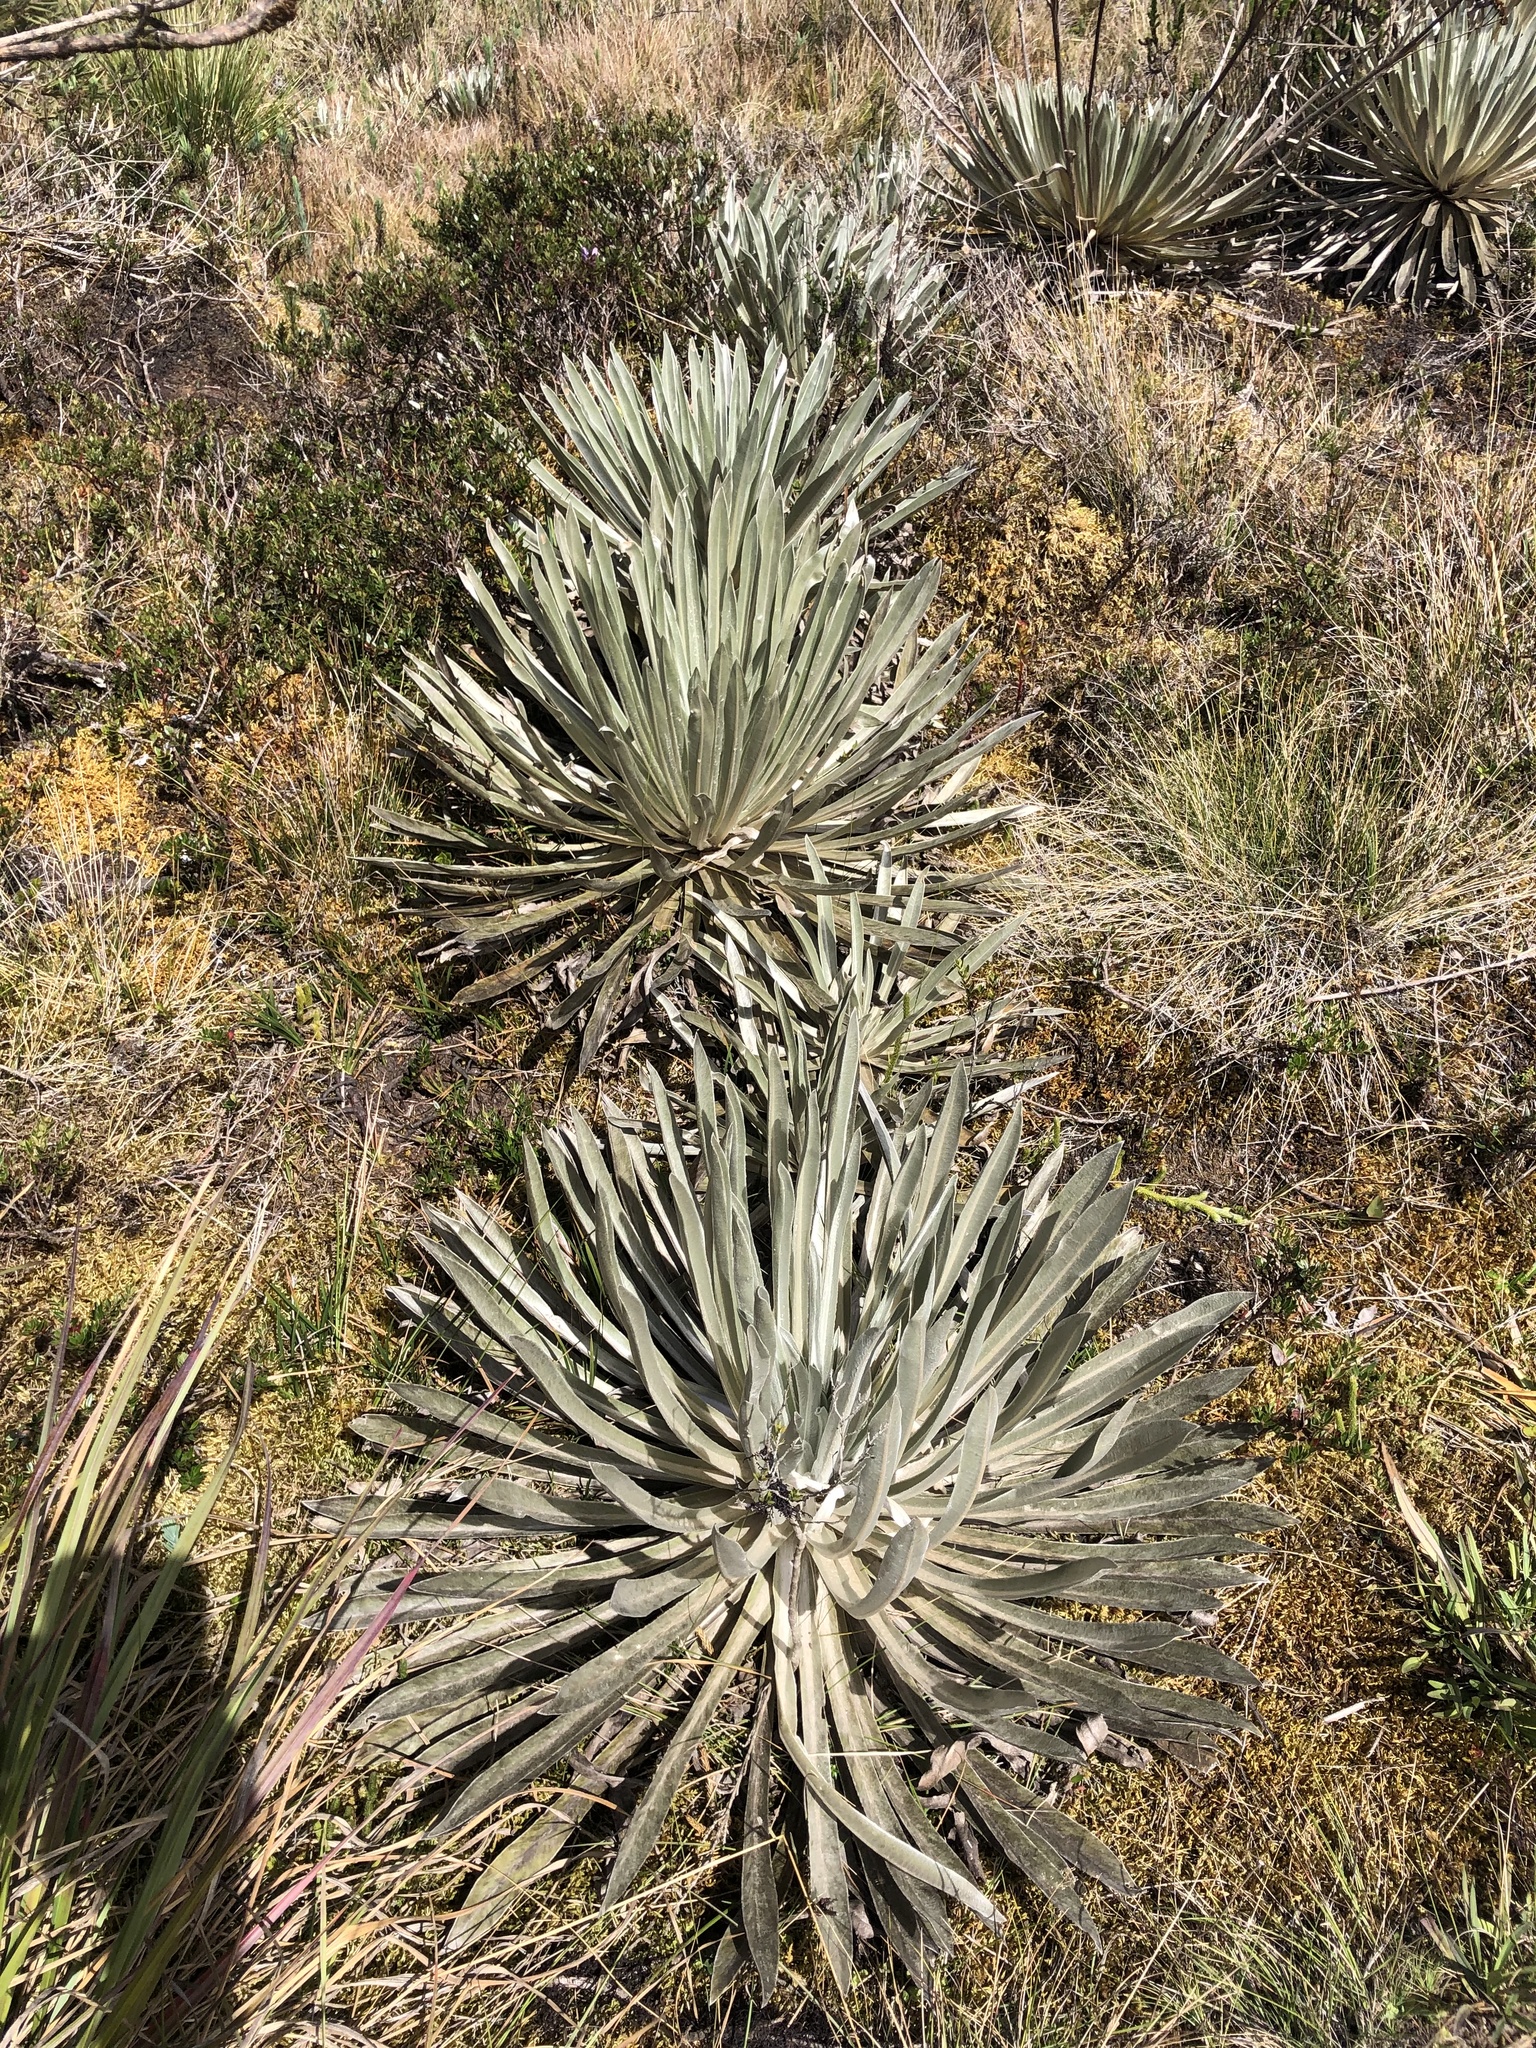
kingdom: Plantae
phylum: Tracheophyta
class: Magnoliopsida
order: Asterales
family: Asteraceae
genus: Espeletia
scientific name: Espeletia argentea
